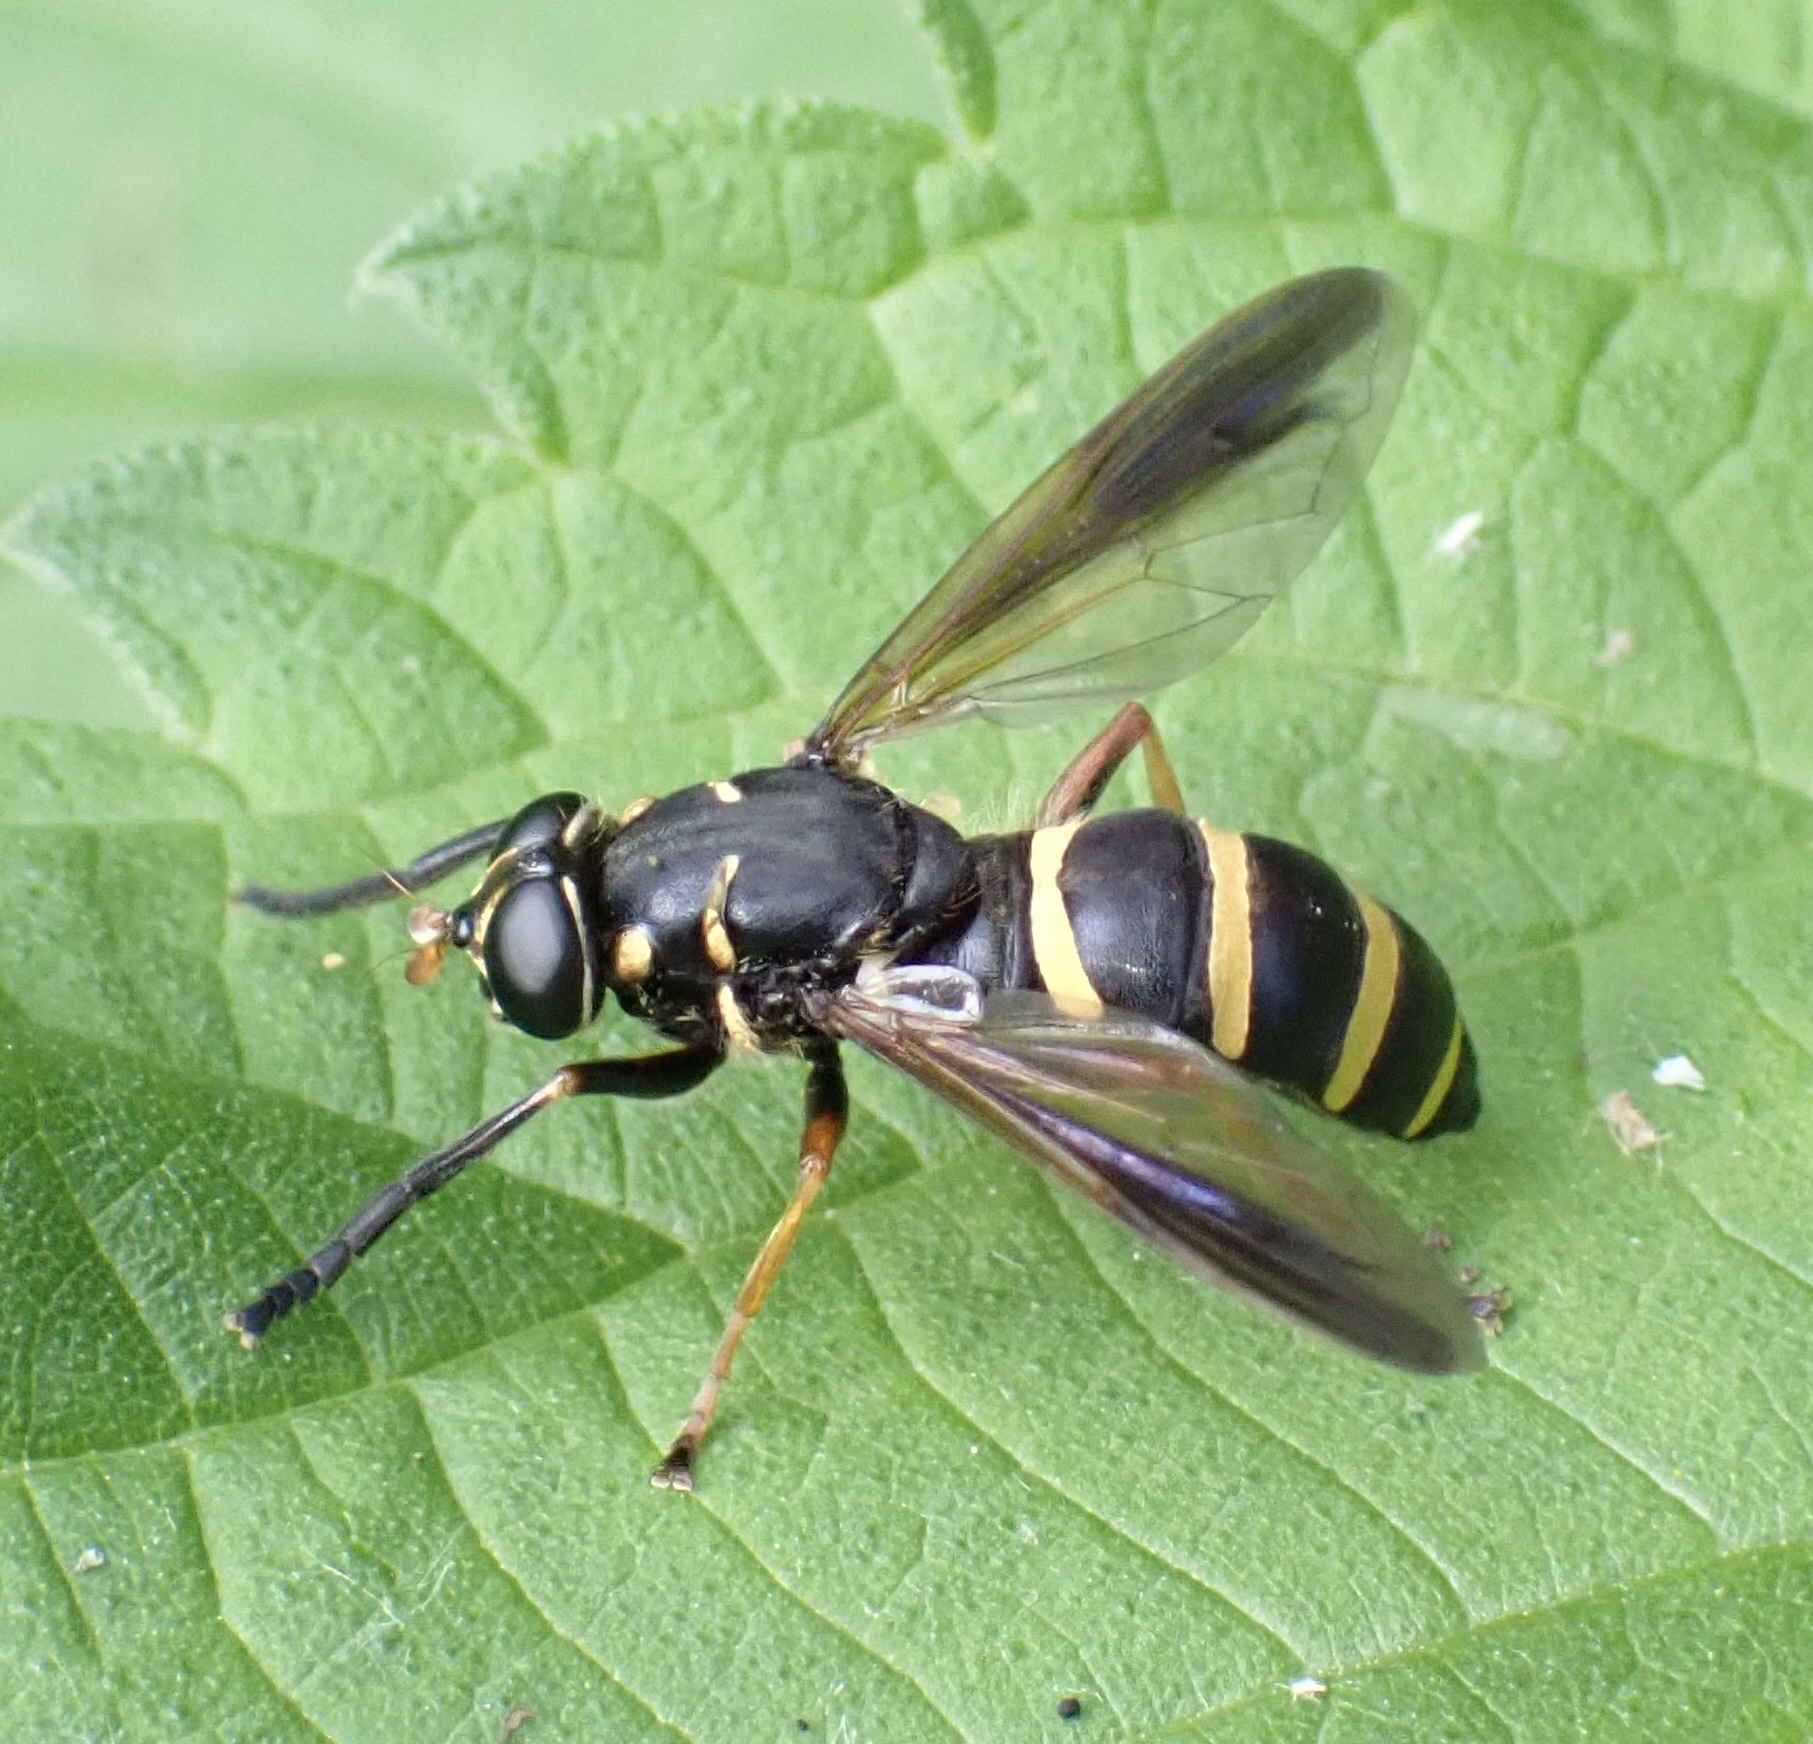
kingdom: Animalia
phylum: Arthropoda
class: Insecta
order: Diptera
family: Syrphidae
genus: Temnostoma
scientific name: Temnostoma bombylans
